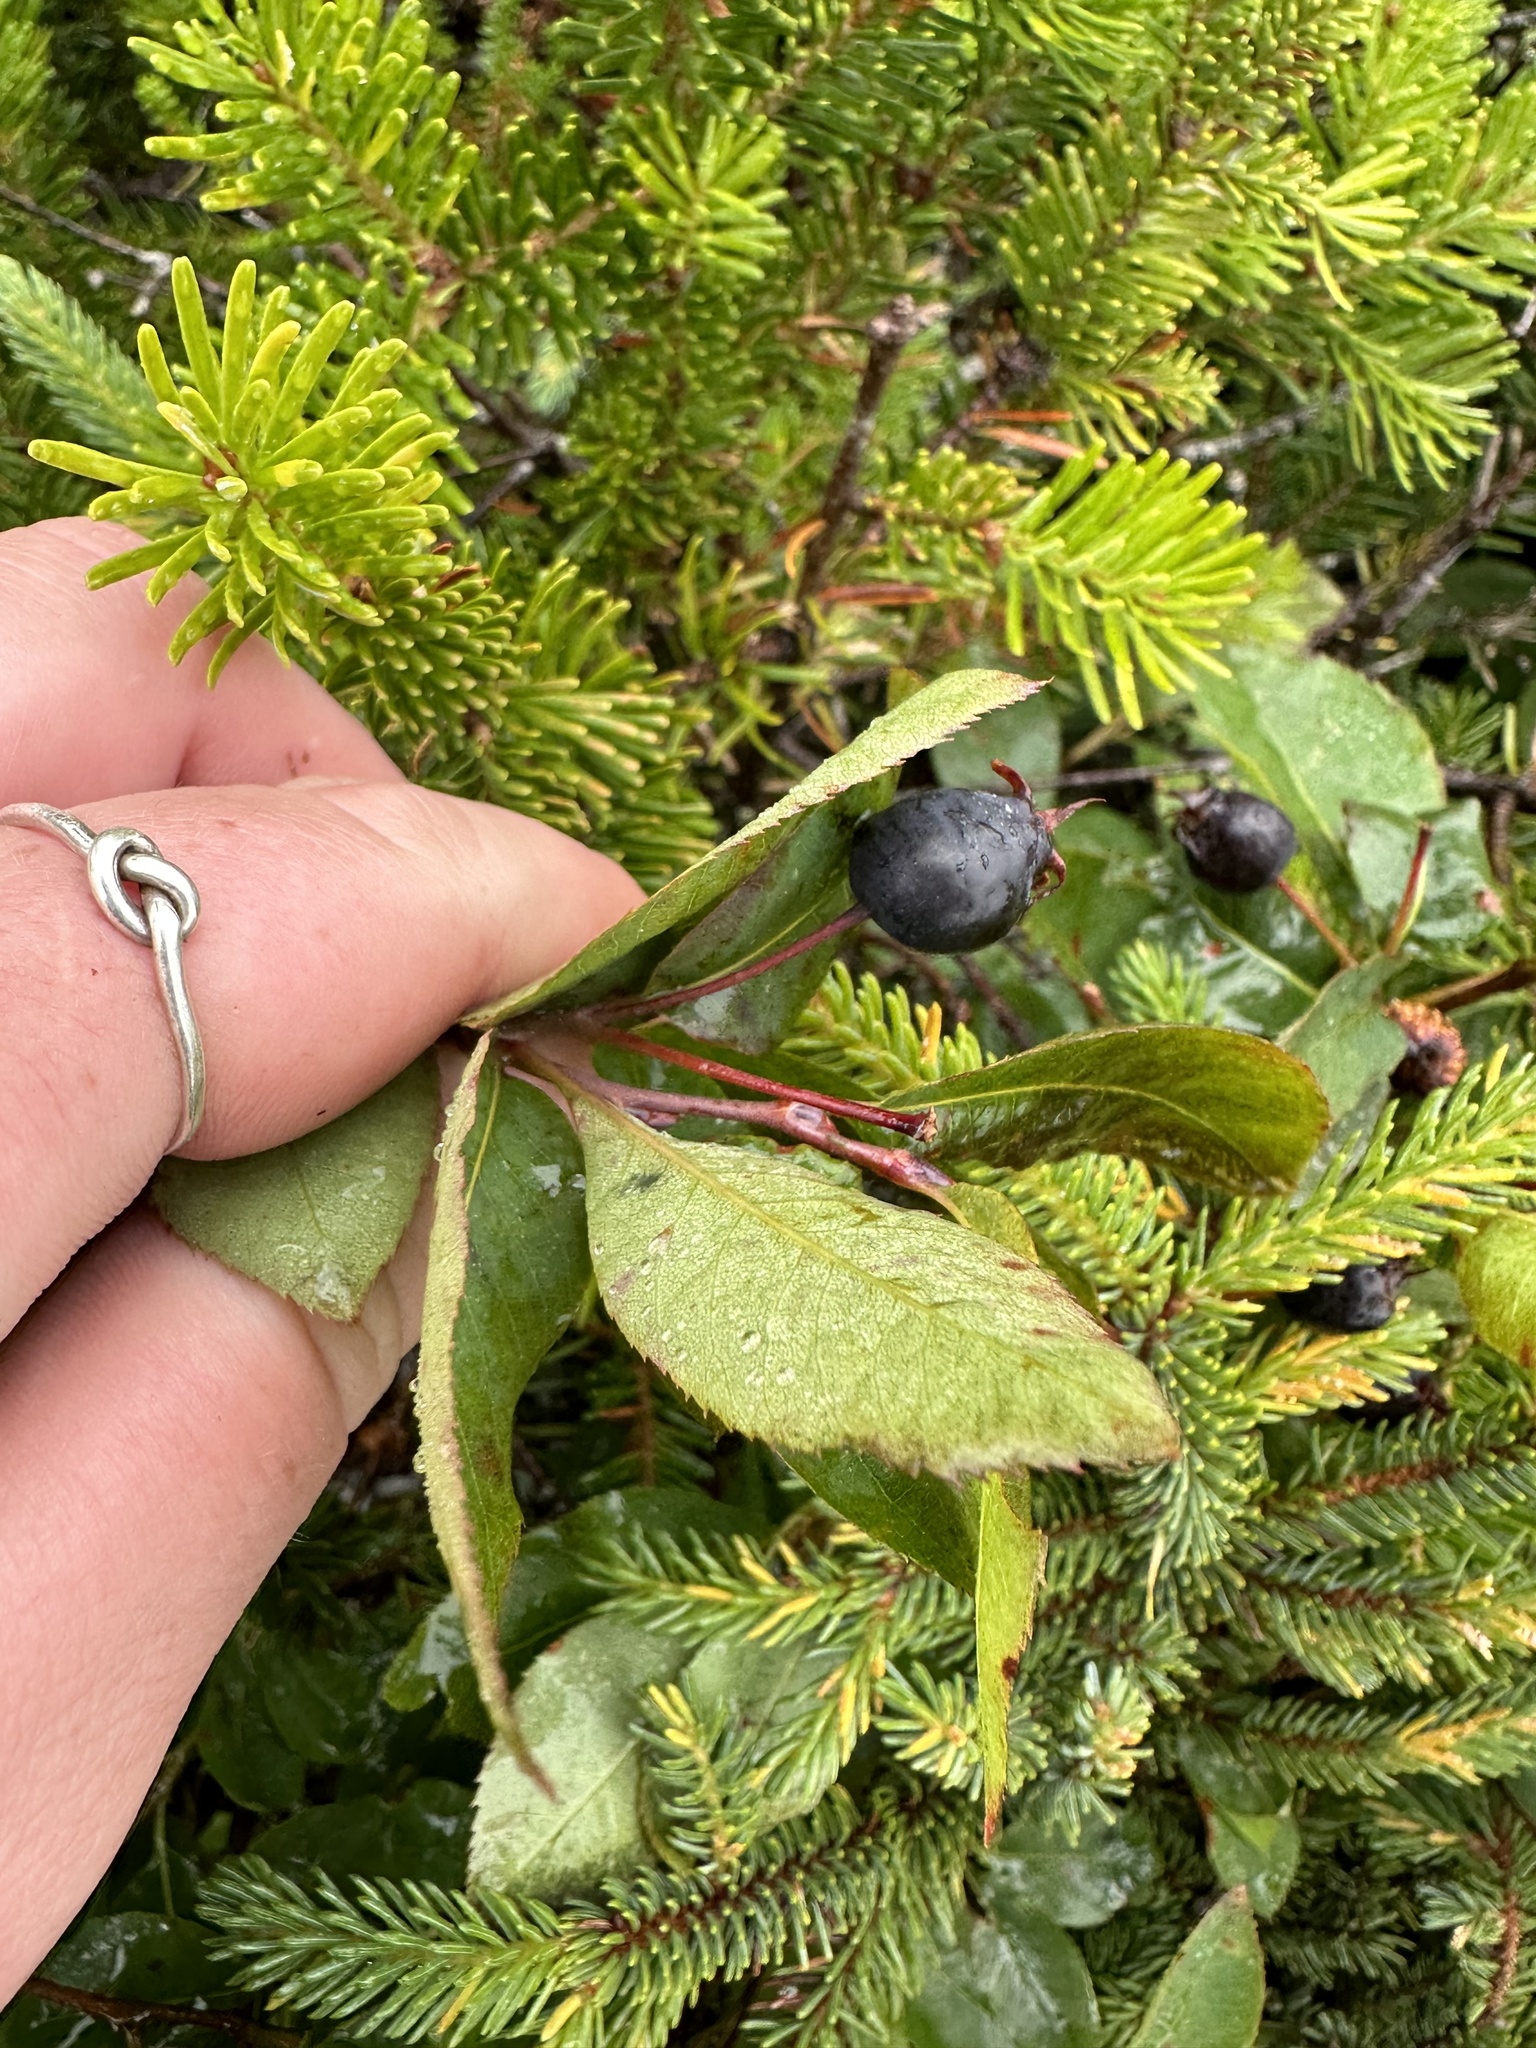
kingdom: Plantae
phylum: Tracheophyta
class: Magnoliopsida
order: Rosales
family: Rosaceae
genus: Amelanchier
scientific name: Amelanchier bartramiana
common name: Mountain serviceberry
